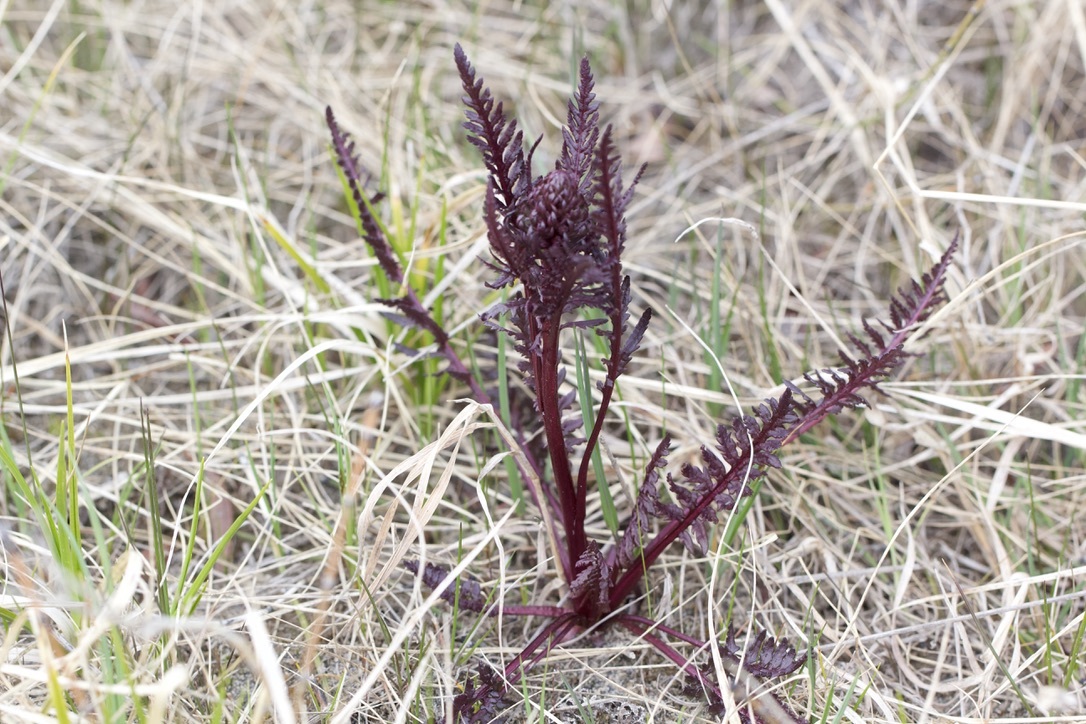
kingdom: Plantae
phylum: Tracheophyta
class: Magnoliopsida
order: Lamiales
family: Orobanchaceae
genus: Pedicularis
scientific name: Pedicularis groenlandica
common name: Elephant's-head
